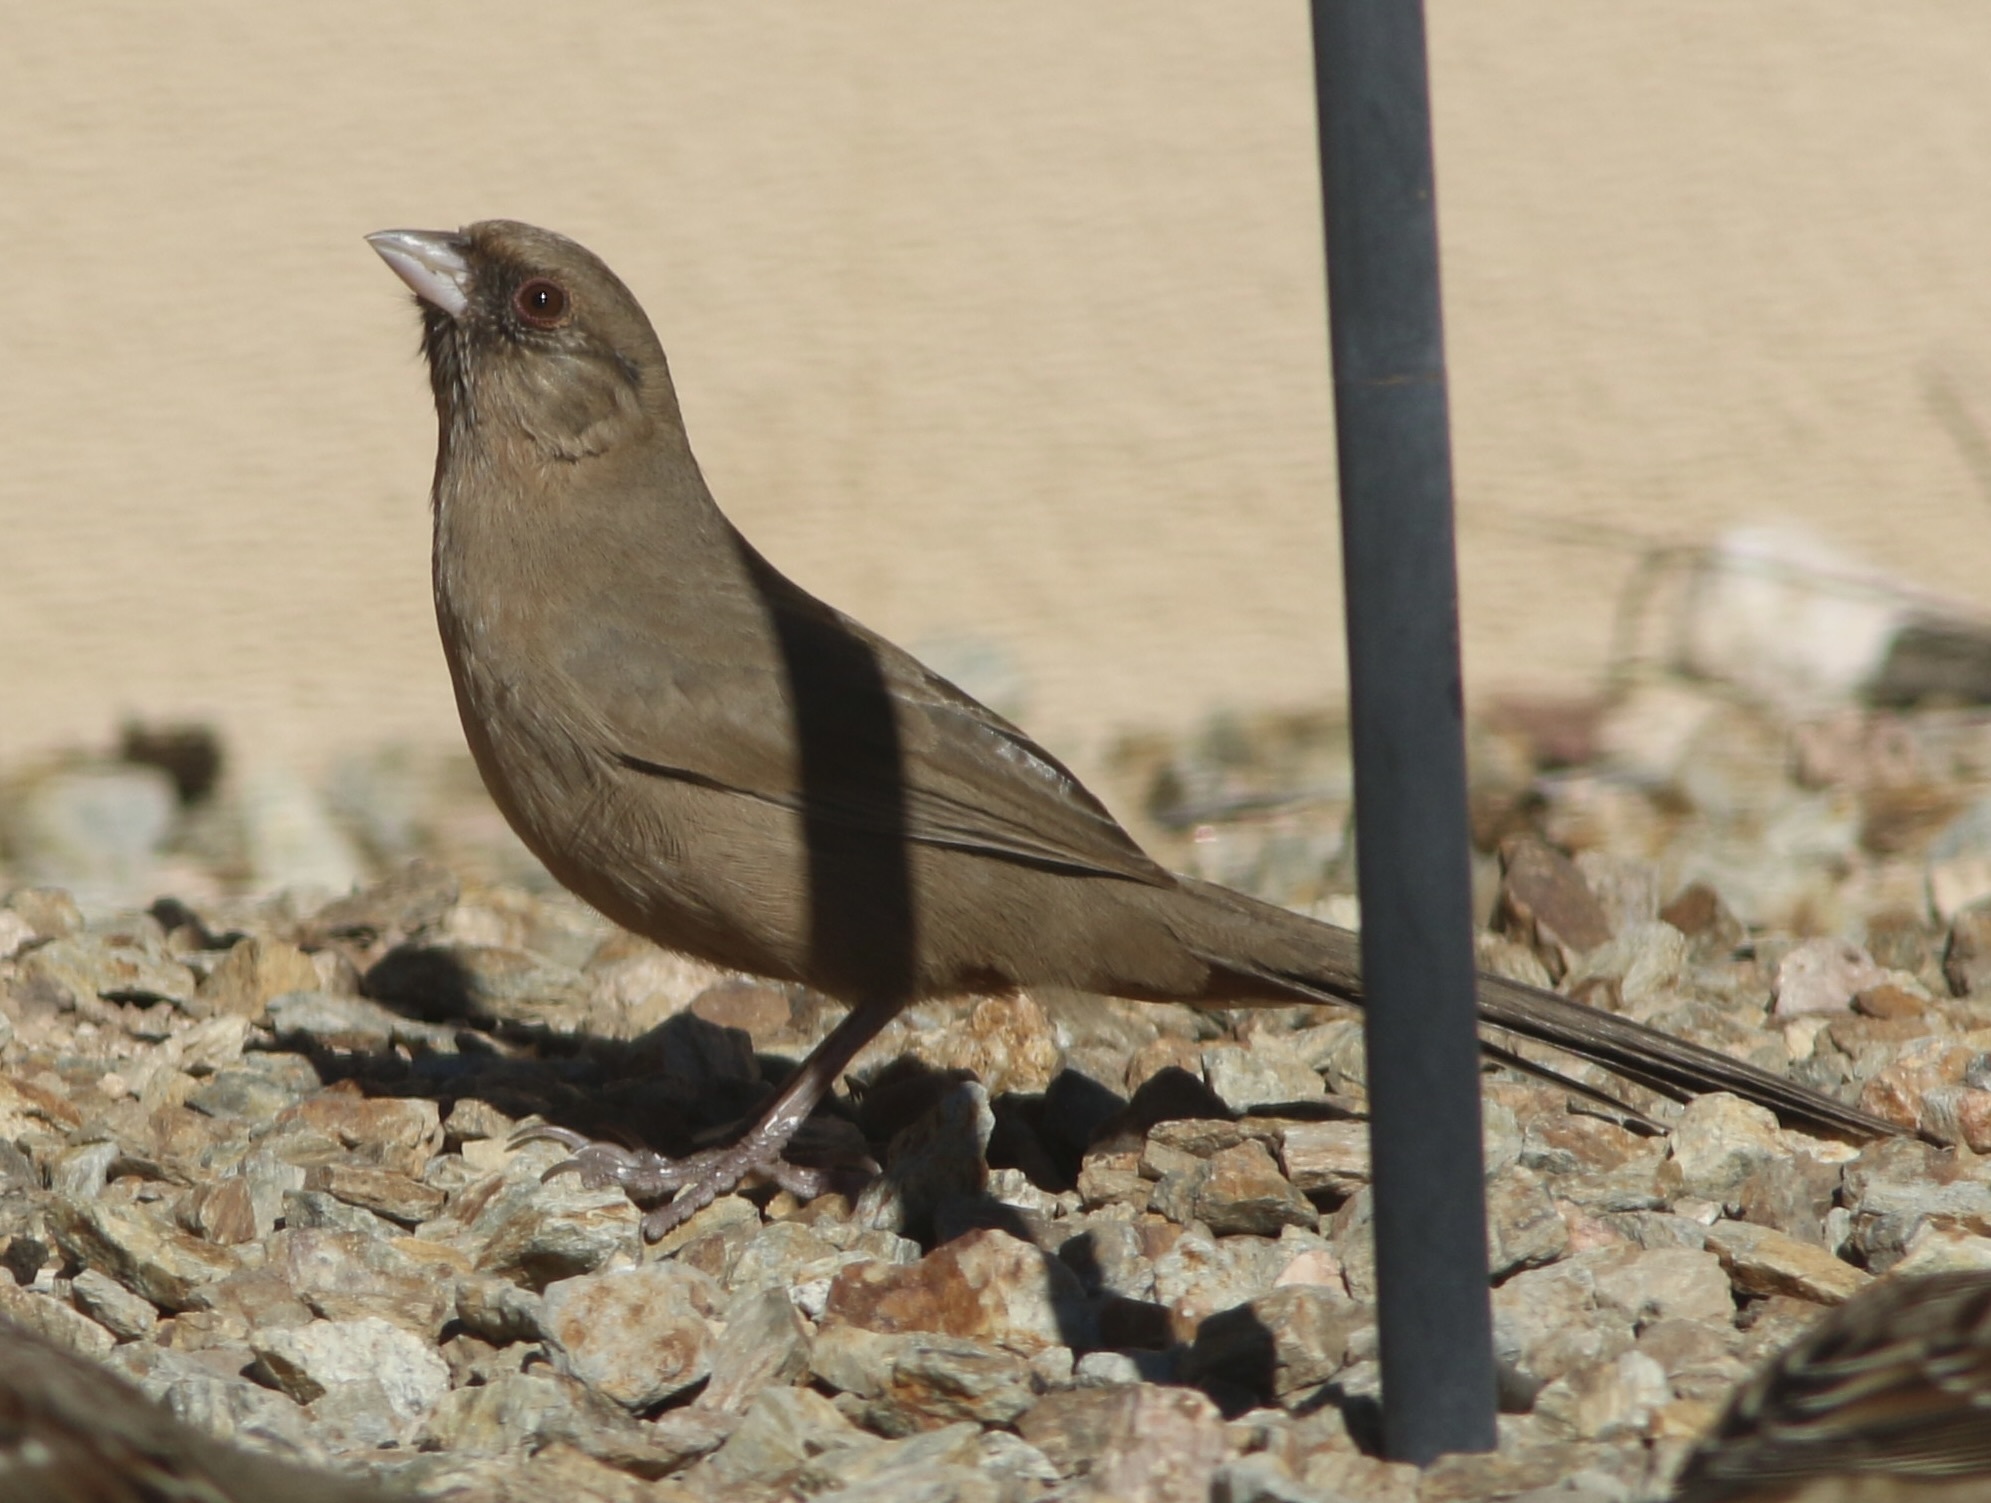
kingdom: Animalia
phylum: Chordata
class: Aves
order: Passeriformes
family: Passerellidae
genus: Melozone
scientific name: Melozone aberti
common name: Abert's towhee
